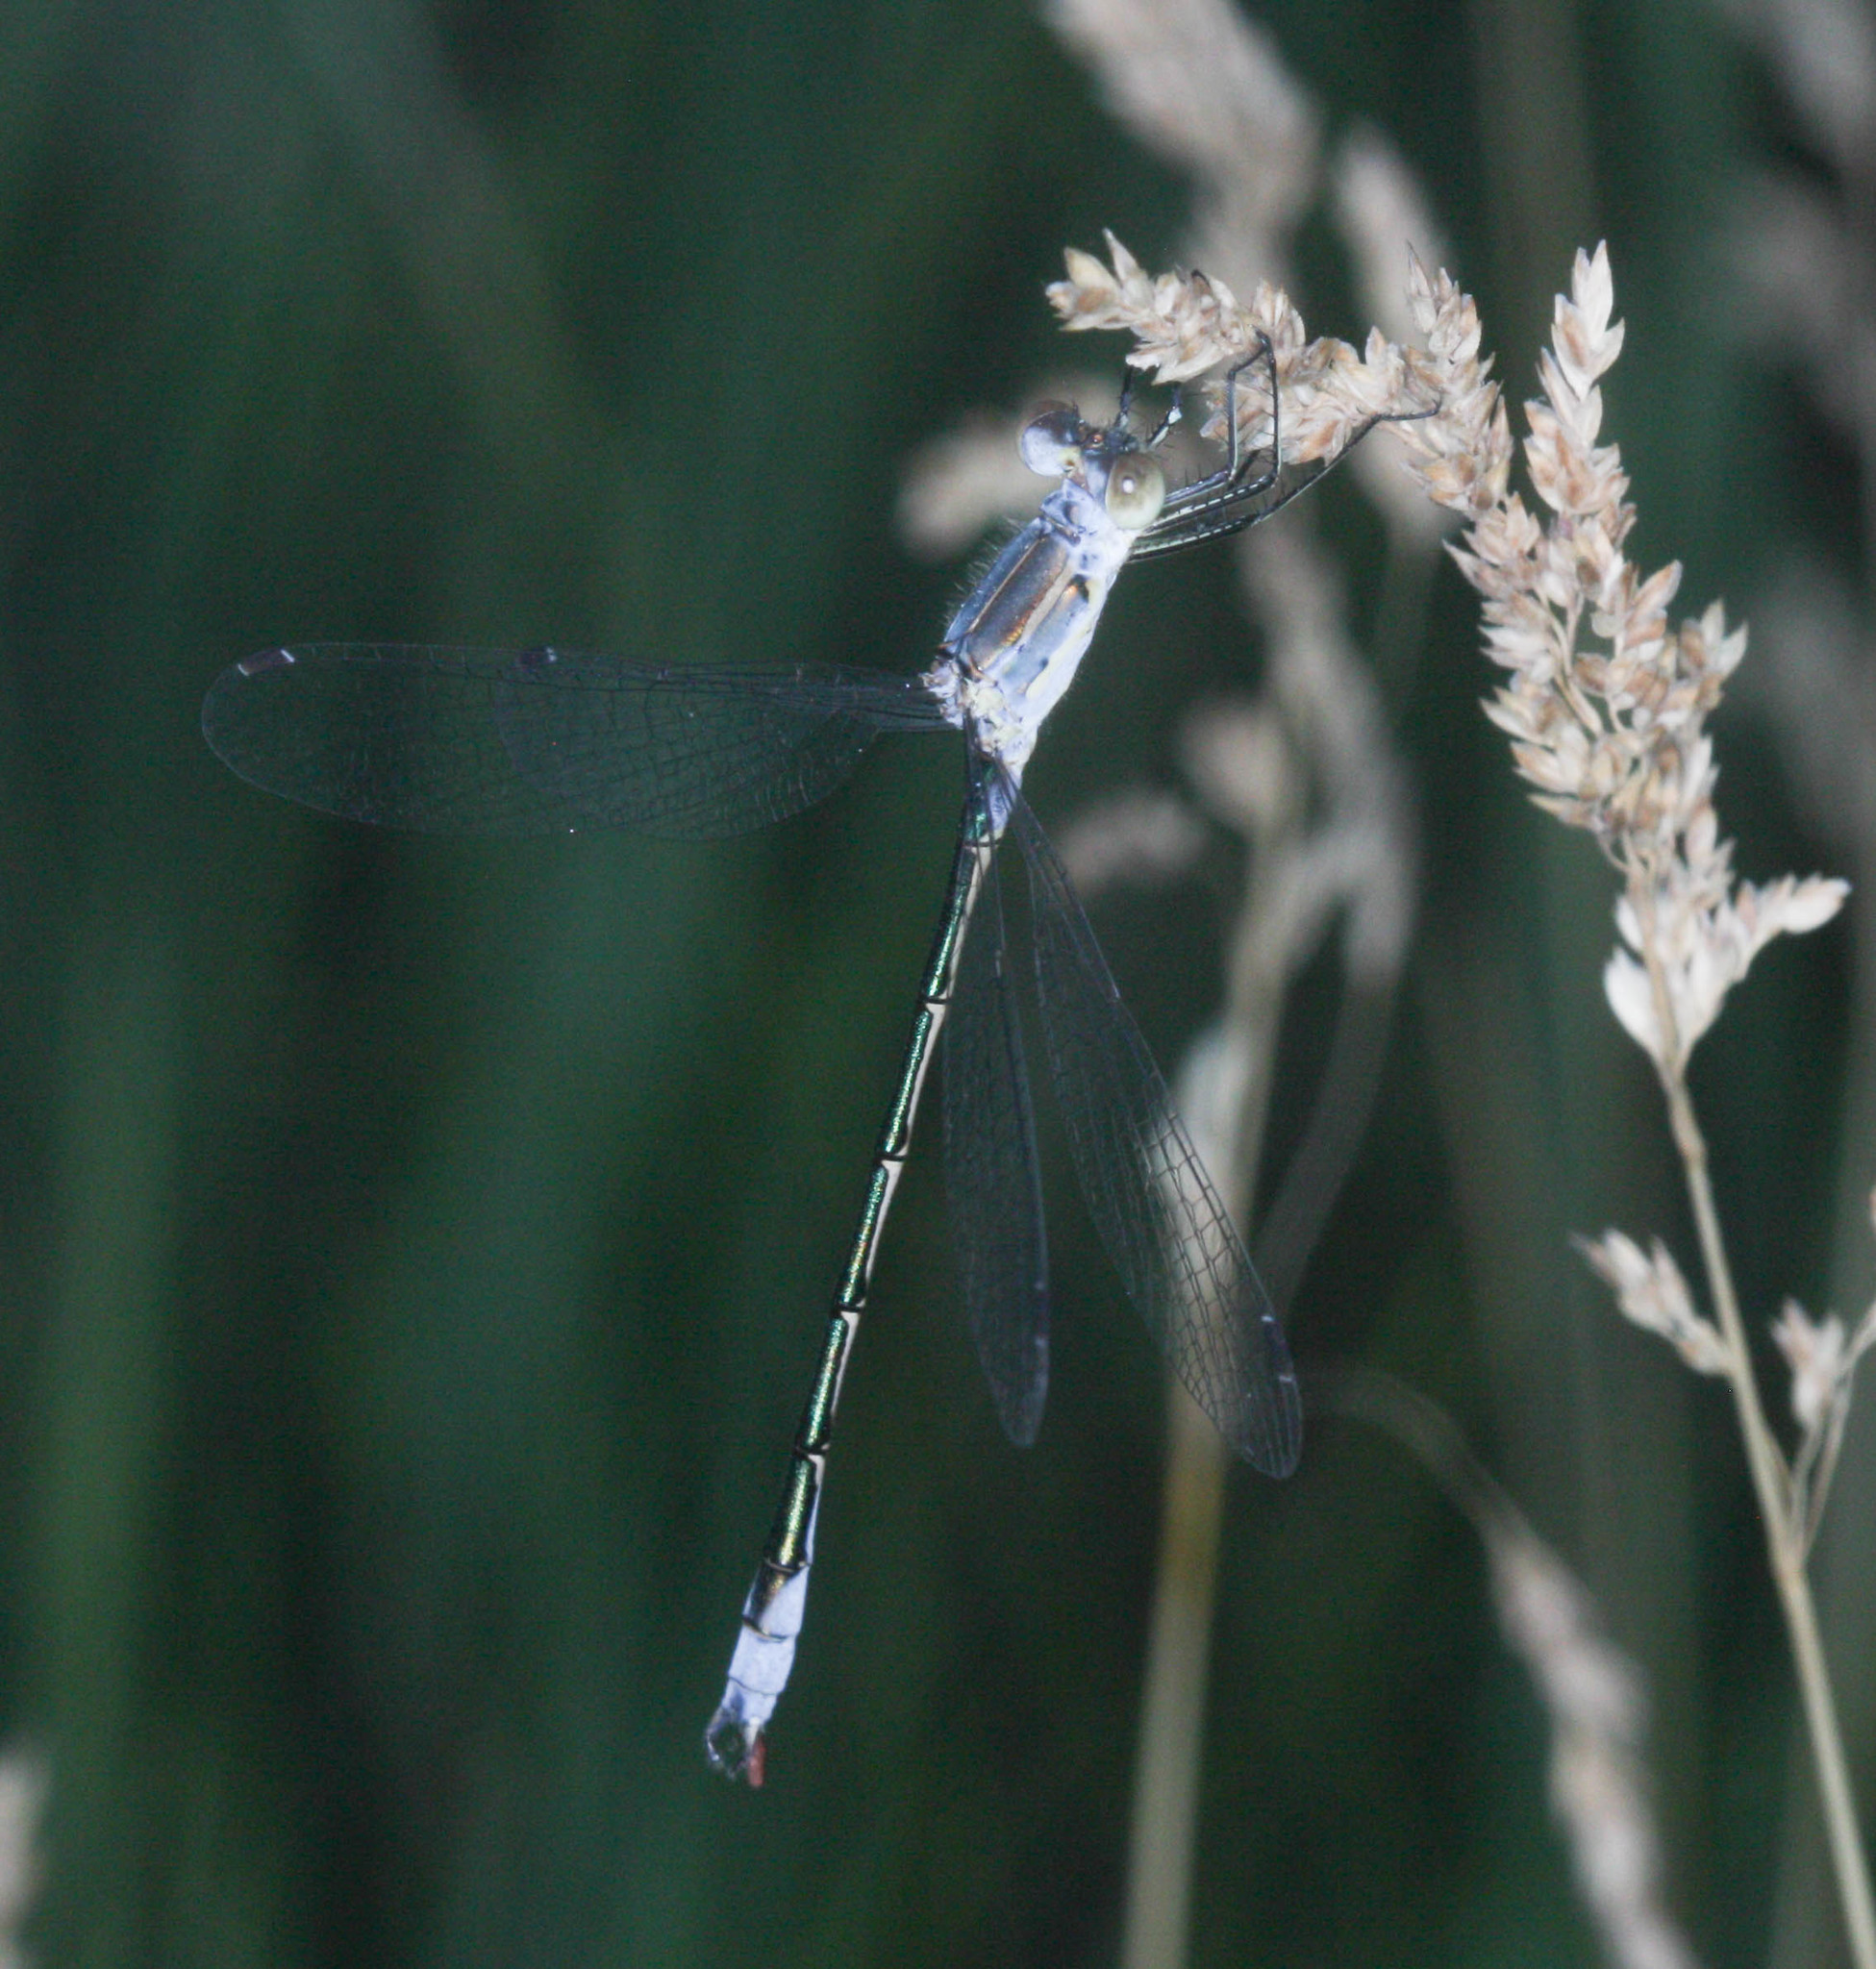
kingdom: Animalia
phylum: Arthropoda
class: Insecta
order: Odonata
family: Lestidae
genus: Lestes
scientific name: Lestes unguiculatus
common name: Lyre-tipped spreadwing
